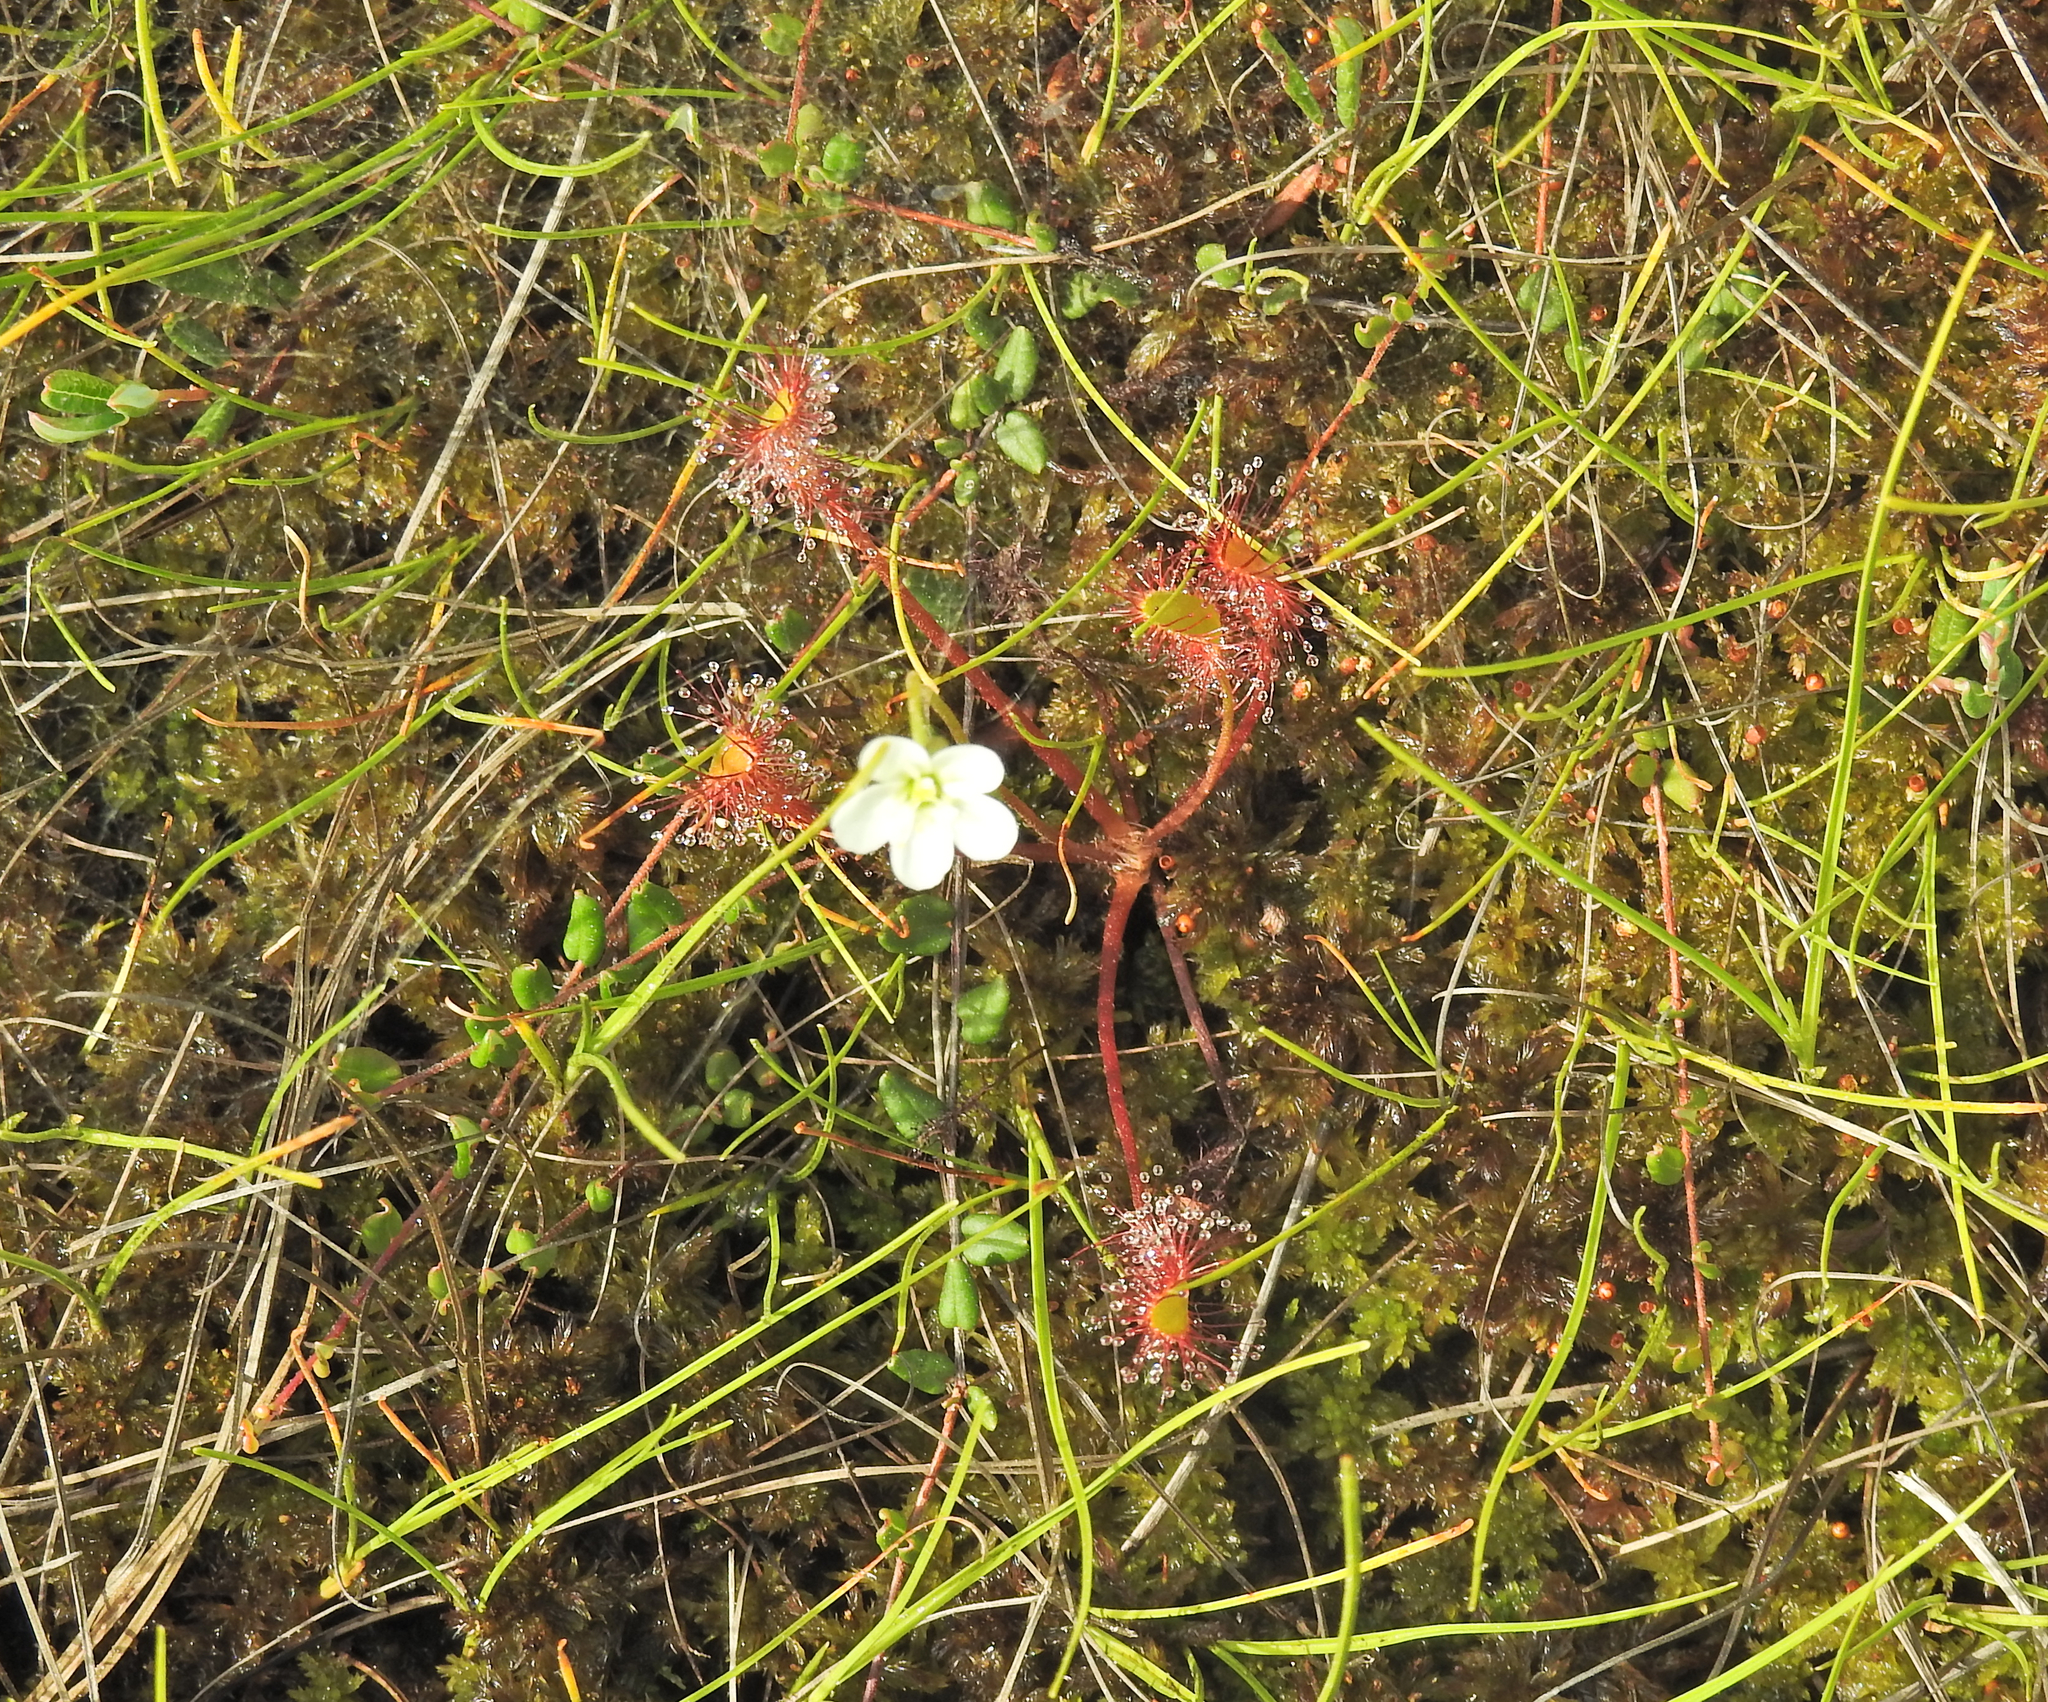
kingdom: Plantae
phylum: Tracheophyta
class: Magnoliopsida
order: Caryophyllales
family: Droseraceae
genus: Drosera
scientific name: Drosera anglica
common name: Great sundew
